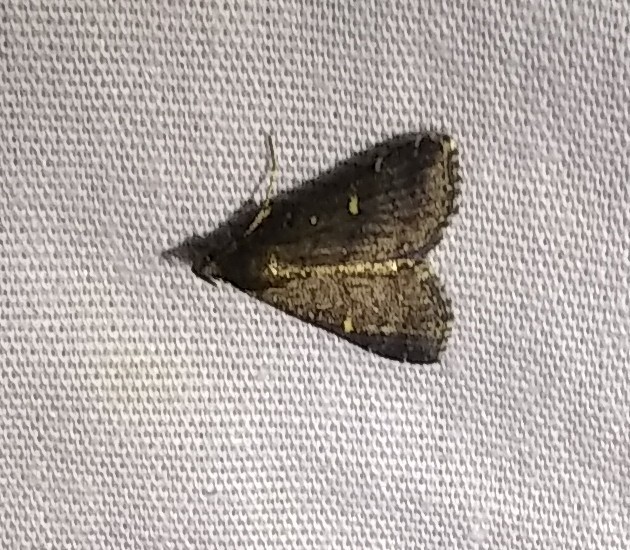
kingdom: Animalia
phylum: Arthropoda
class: Insecta
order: Lepidoptera
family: Erebidae
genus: Tetanolita
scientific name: Tetanolita mynesalis
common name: Smoky tetanolita moth
